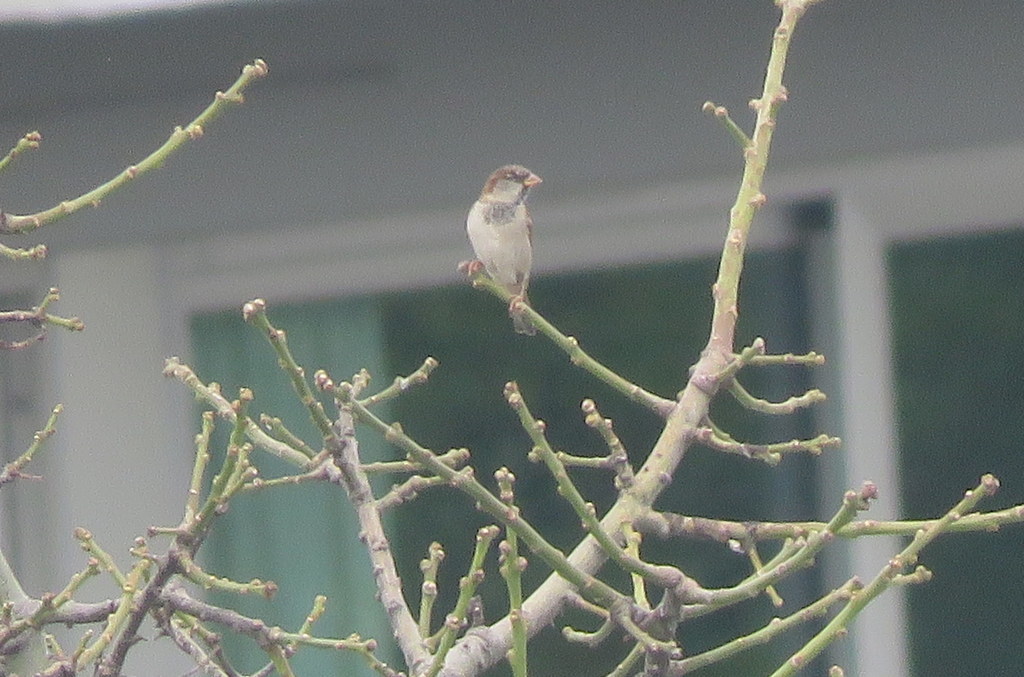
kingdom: Animalia
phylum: Chordata
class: Aves
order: Passeriformes
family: Passeridae
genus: Passer
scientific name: Passer domesticus
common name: House sparrow
